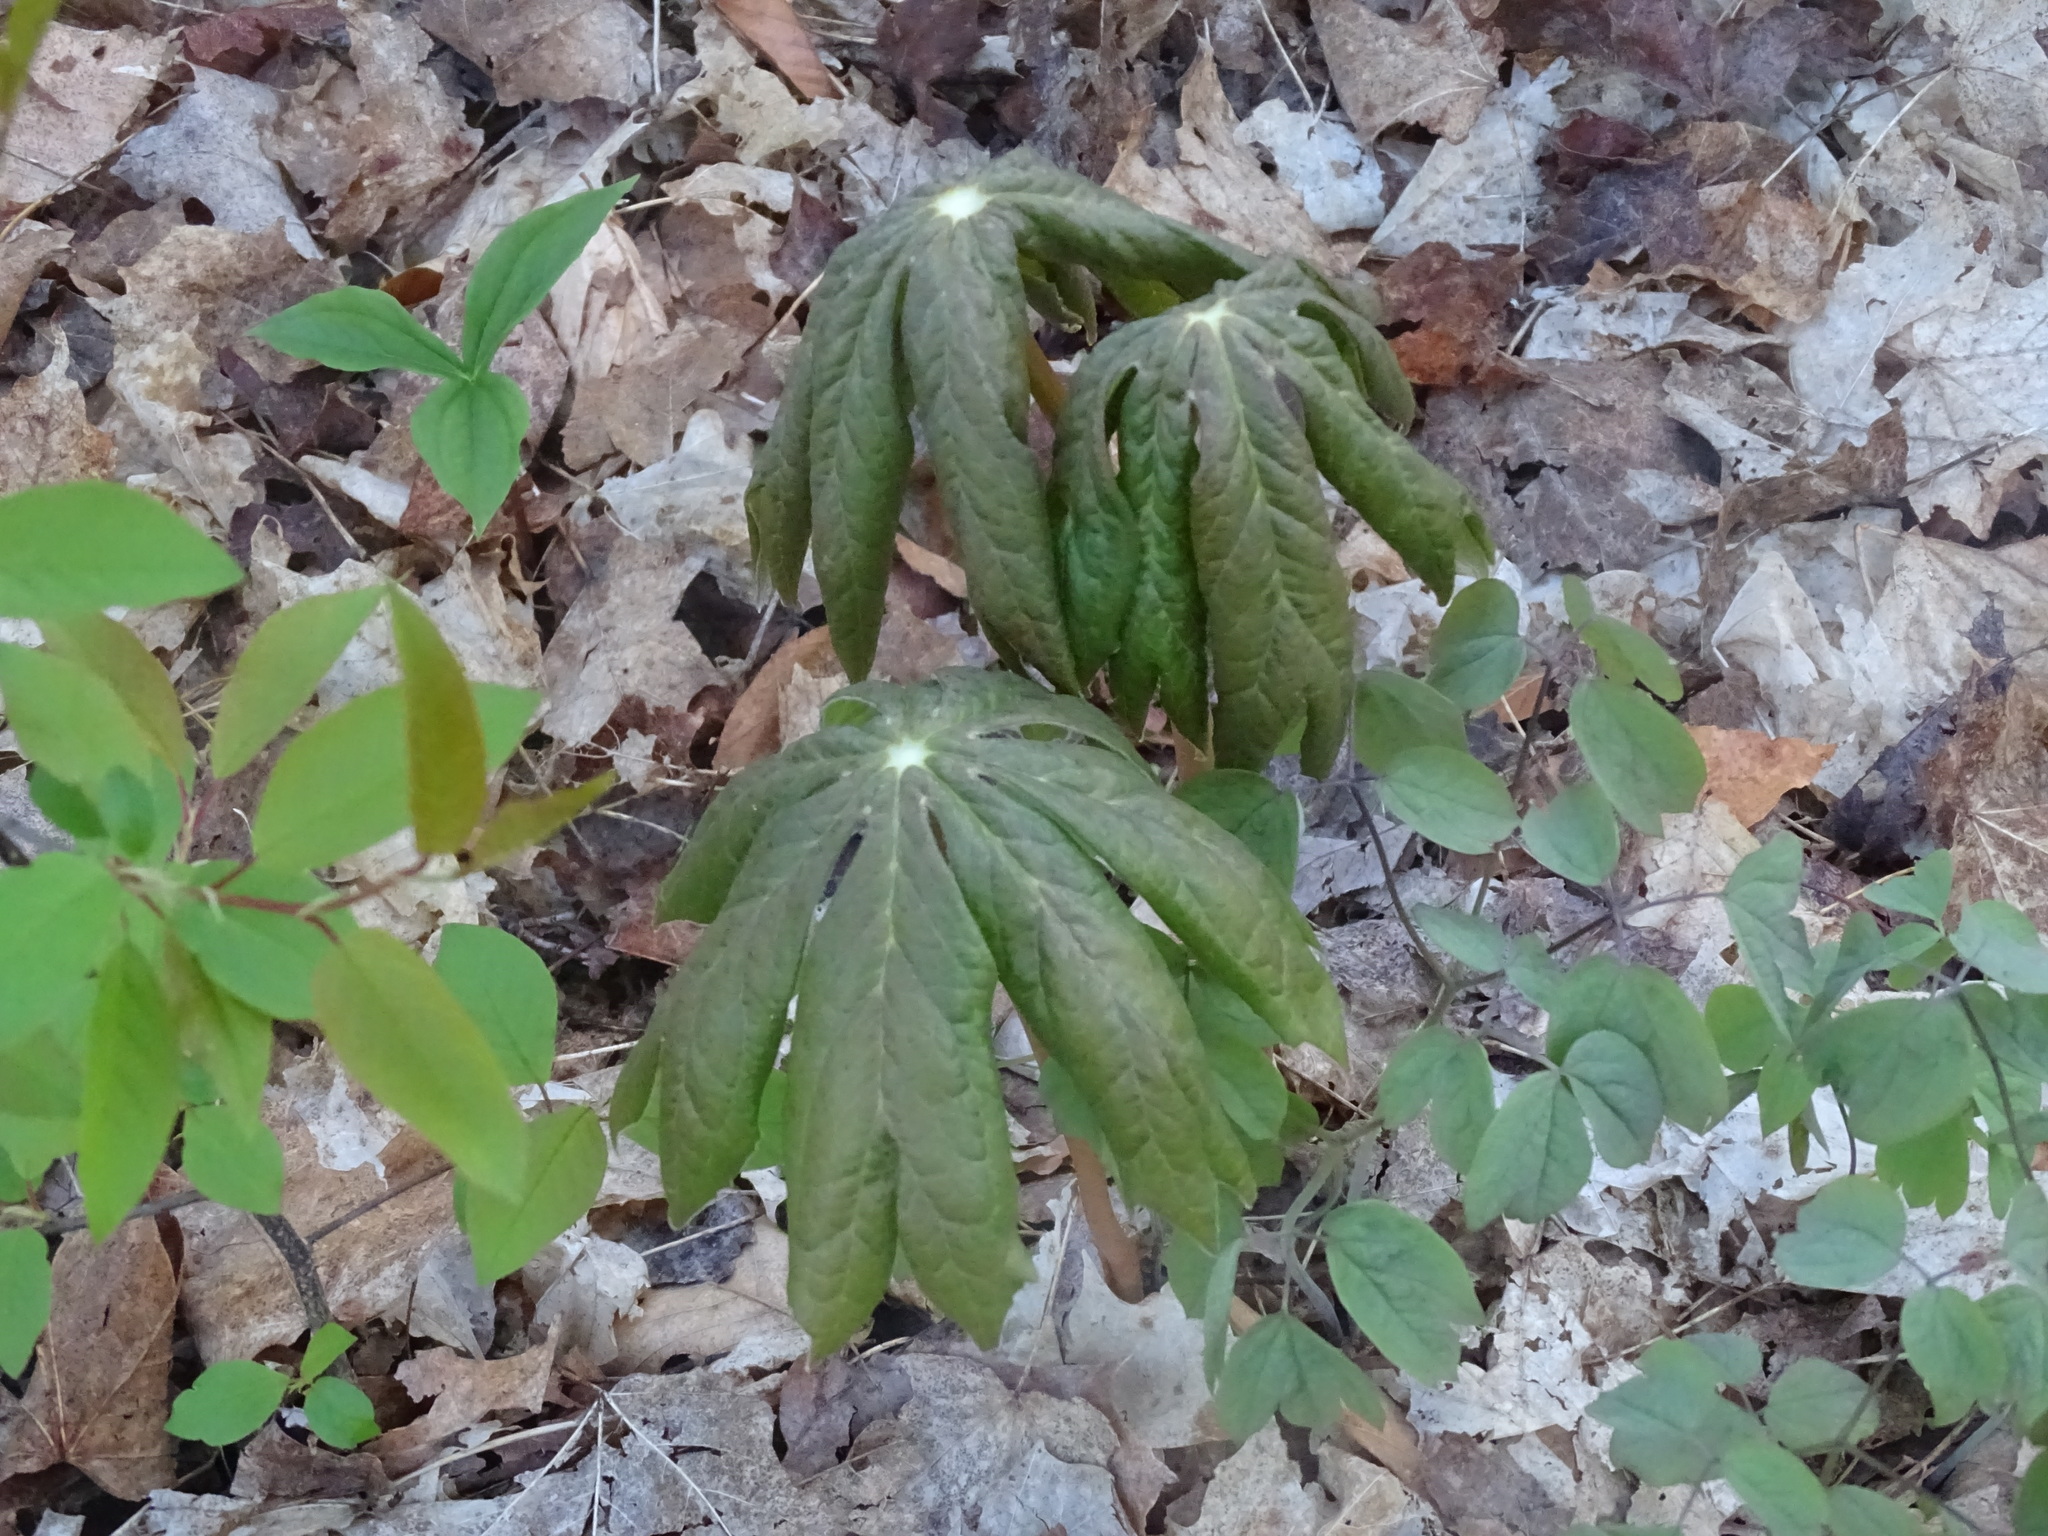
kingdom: Plantae
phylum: Tracheophyta
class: Magnoliopsida
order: Ranunculales
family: Berberidaceae
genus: Podophyllum
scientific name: Podophyllum peltatum
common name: Wild mandrake
